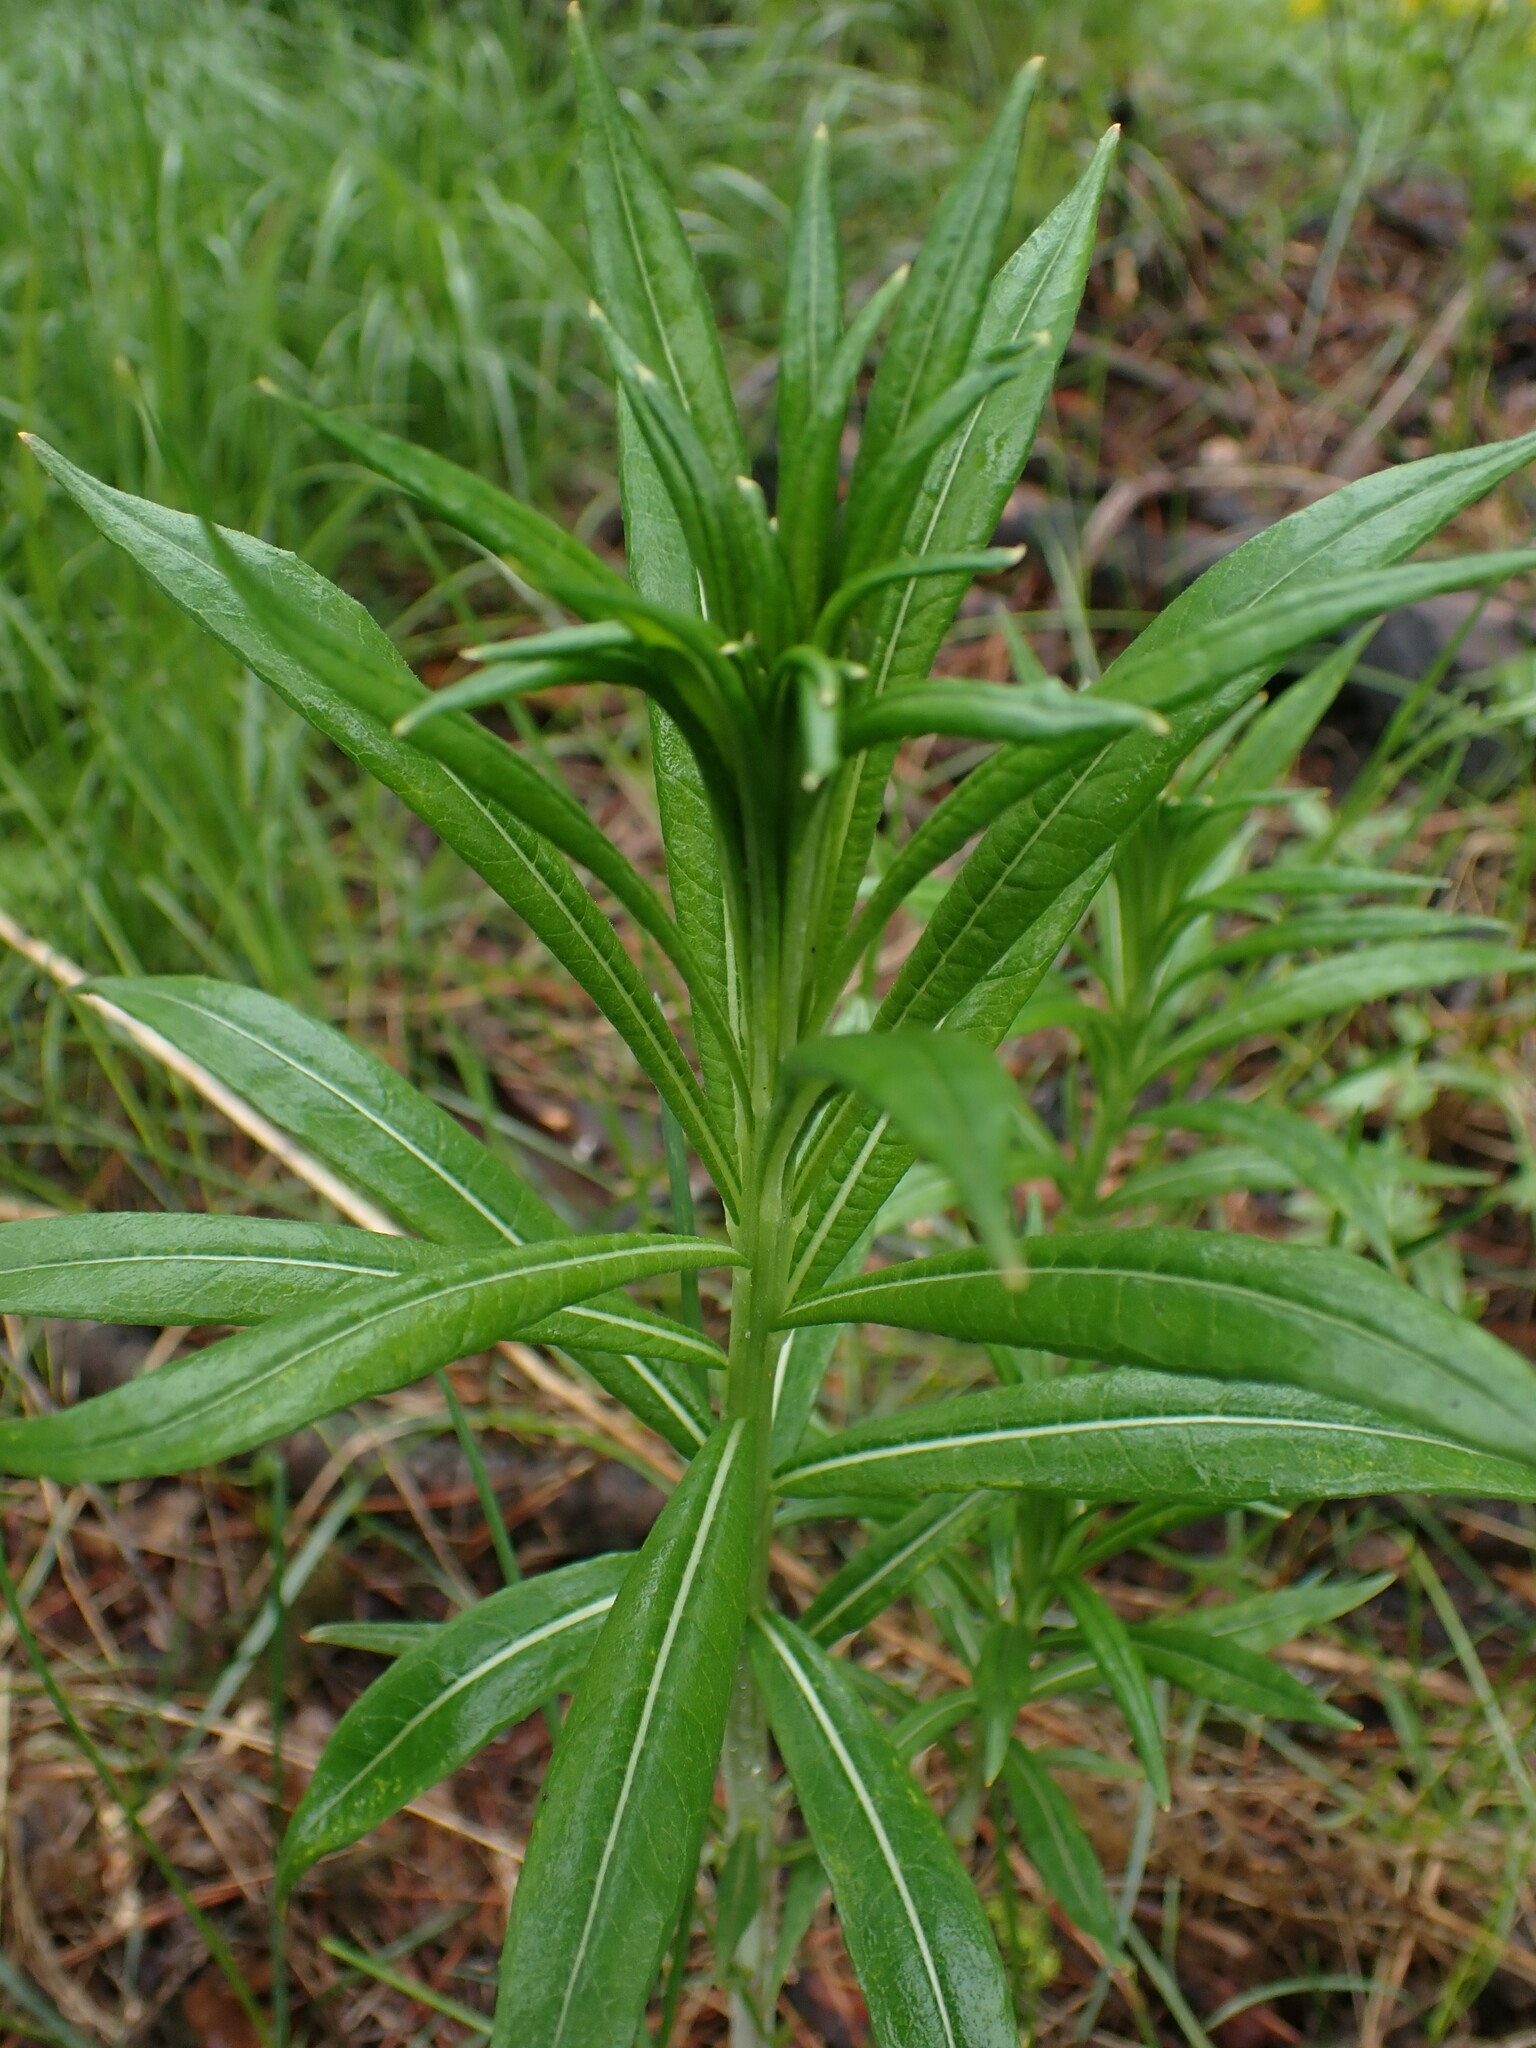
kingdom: Plantae
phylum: Tracheophyta
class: Magnoliopsida
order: Myrtales
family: Onagraceae
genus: Chamaenerion
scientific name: Chamaenerion angustifolium
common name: Fireweed
